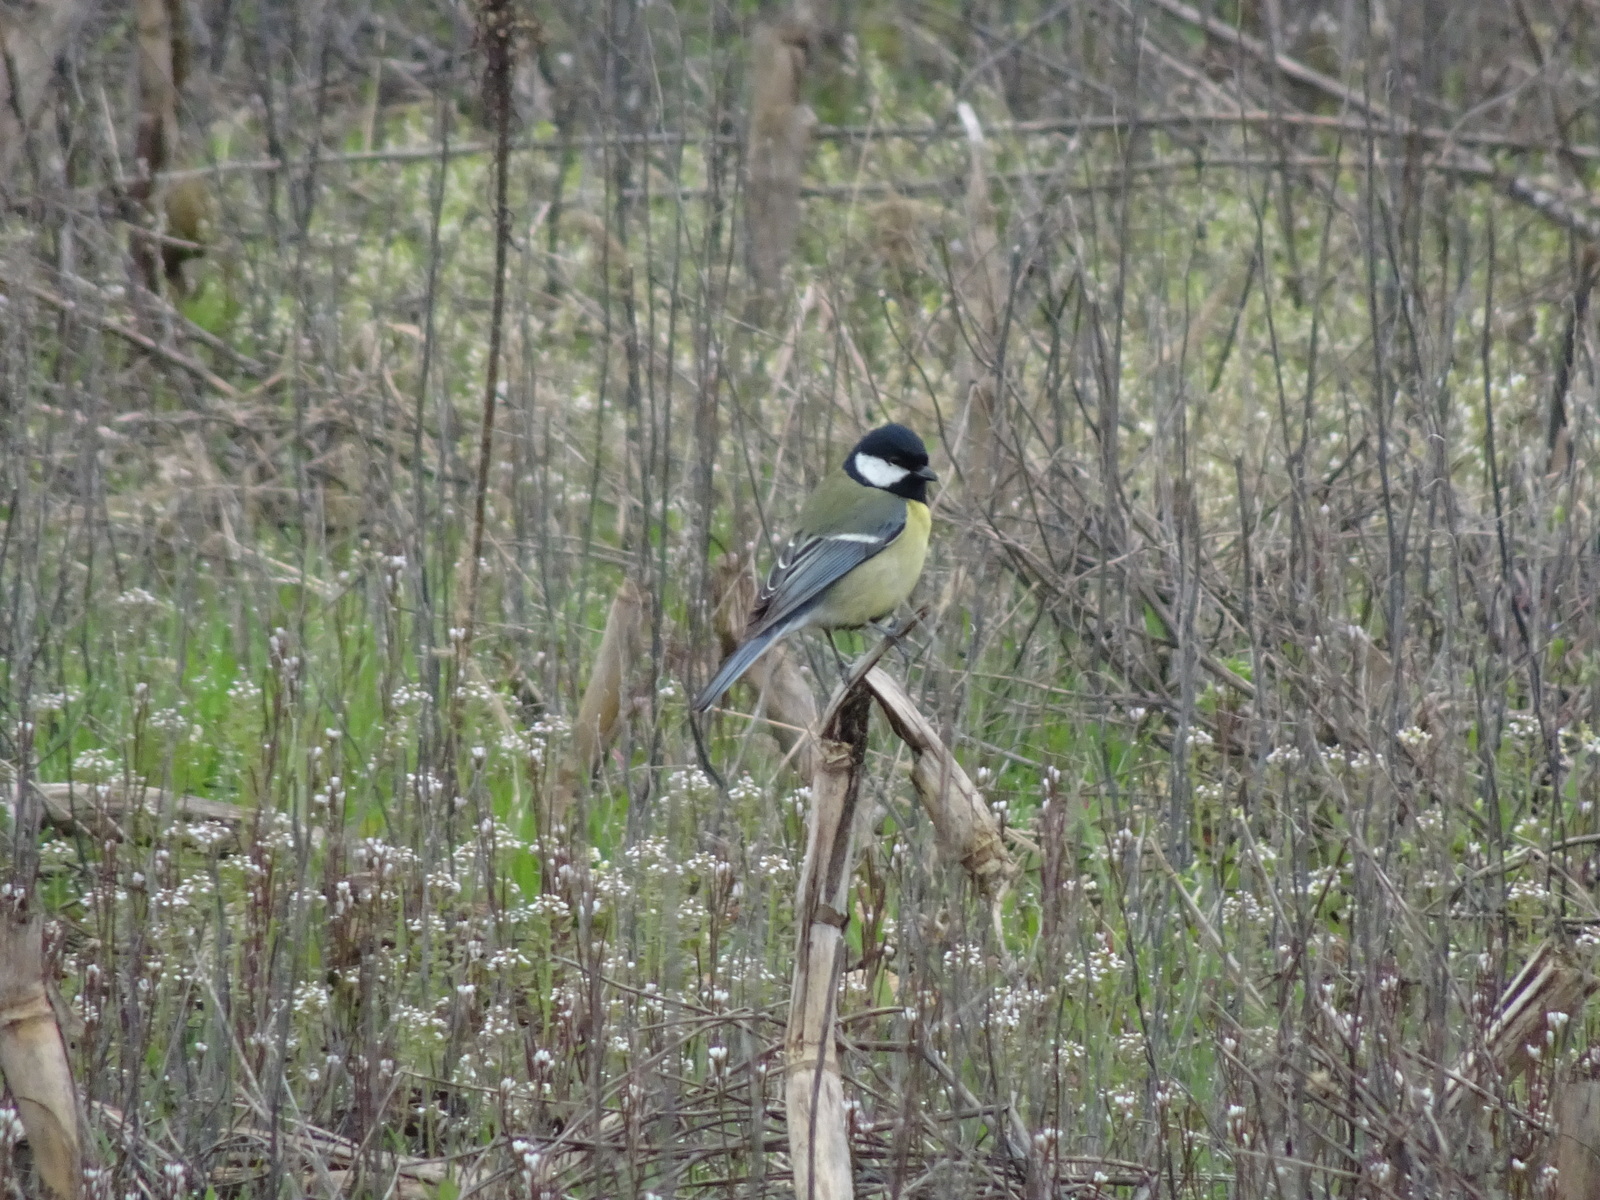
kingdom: Animalia
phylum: Chordata
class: Aves
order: Passeriformes
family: Paridae
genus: Parus
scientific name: Parus major
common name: Great tit
